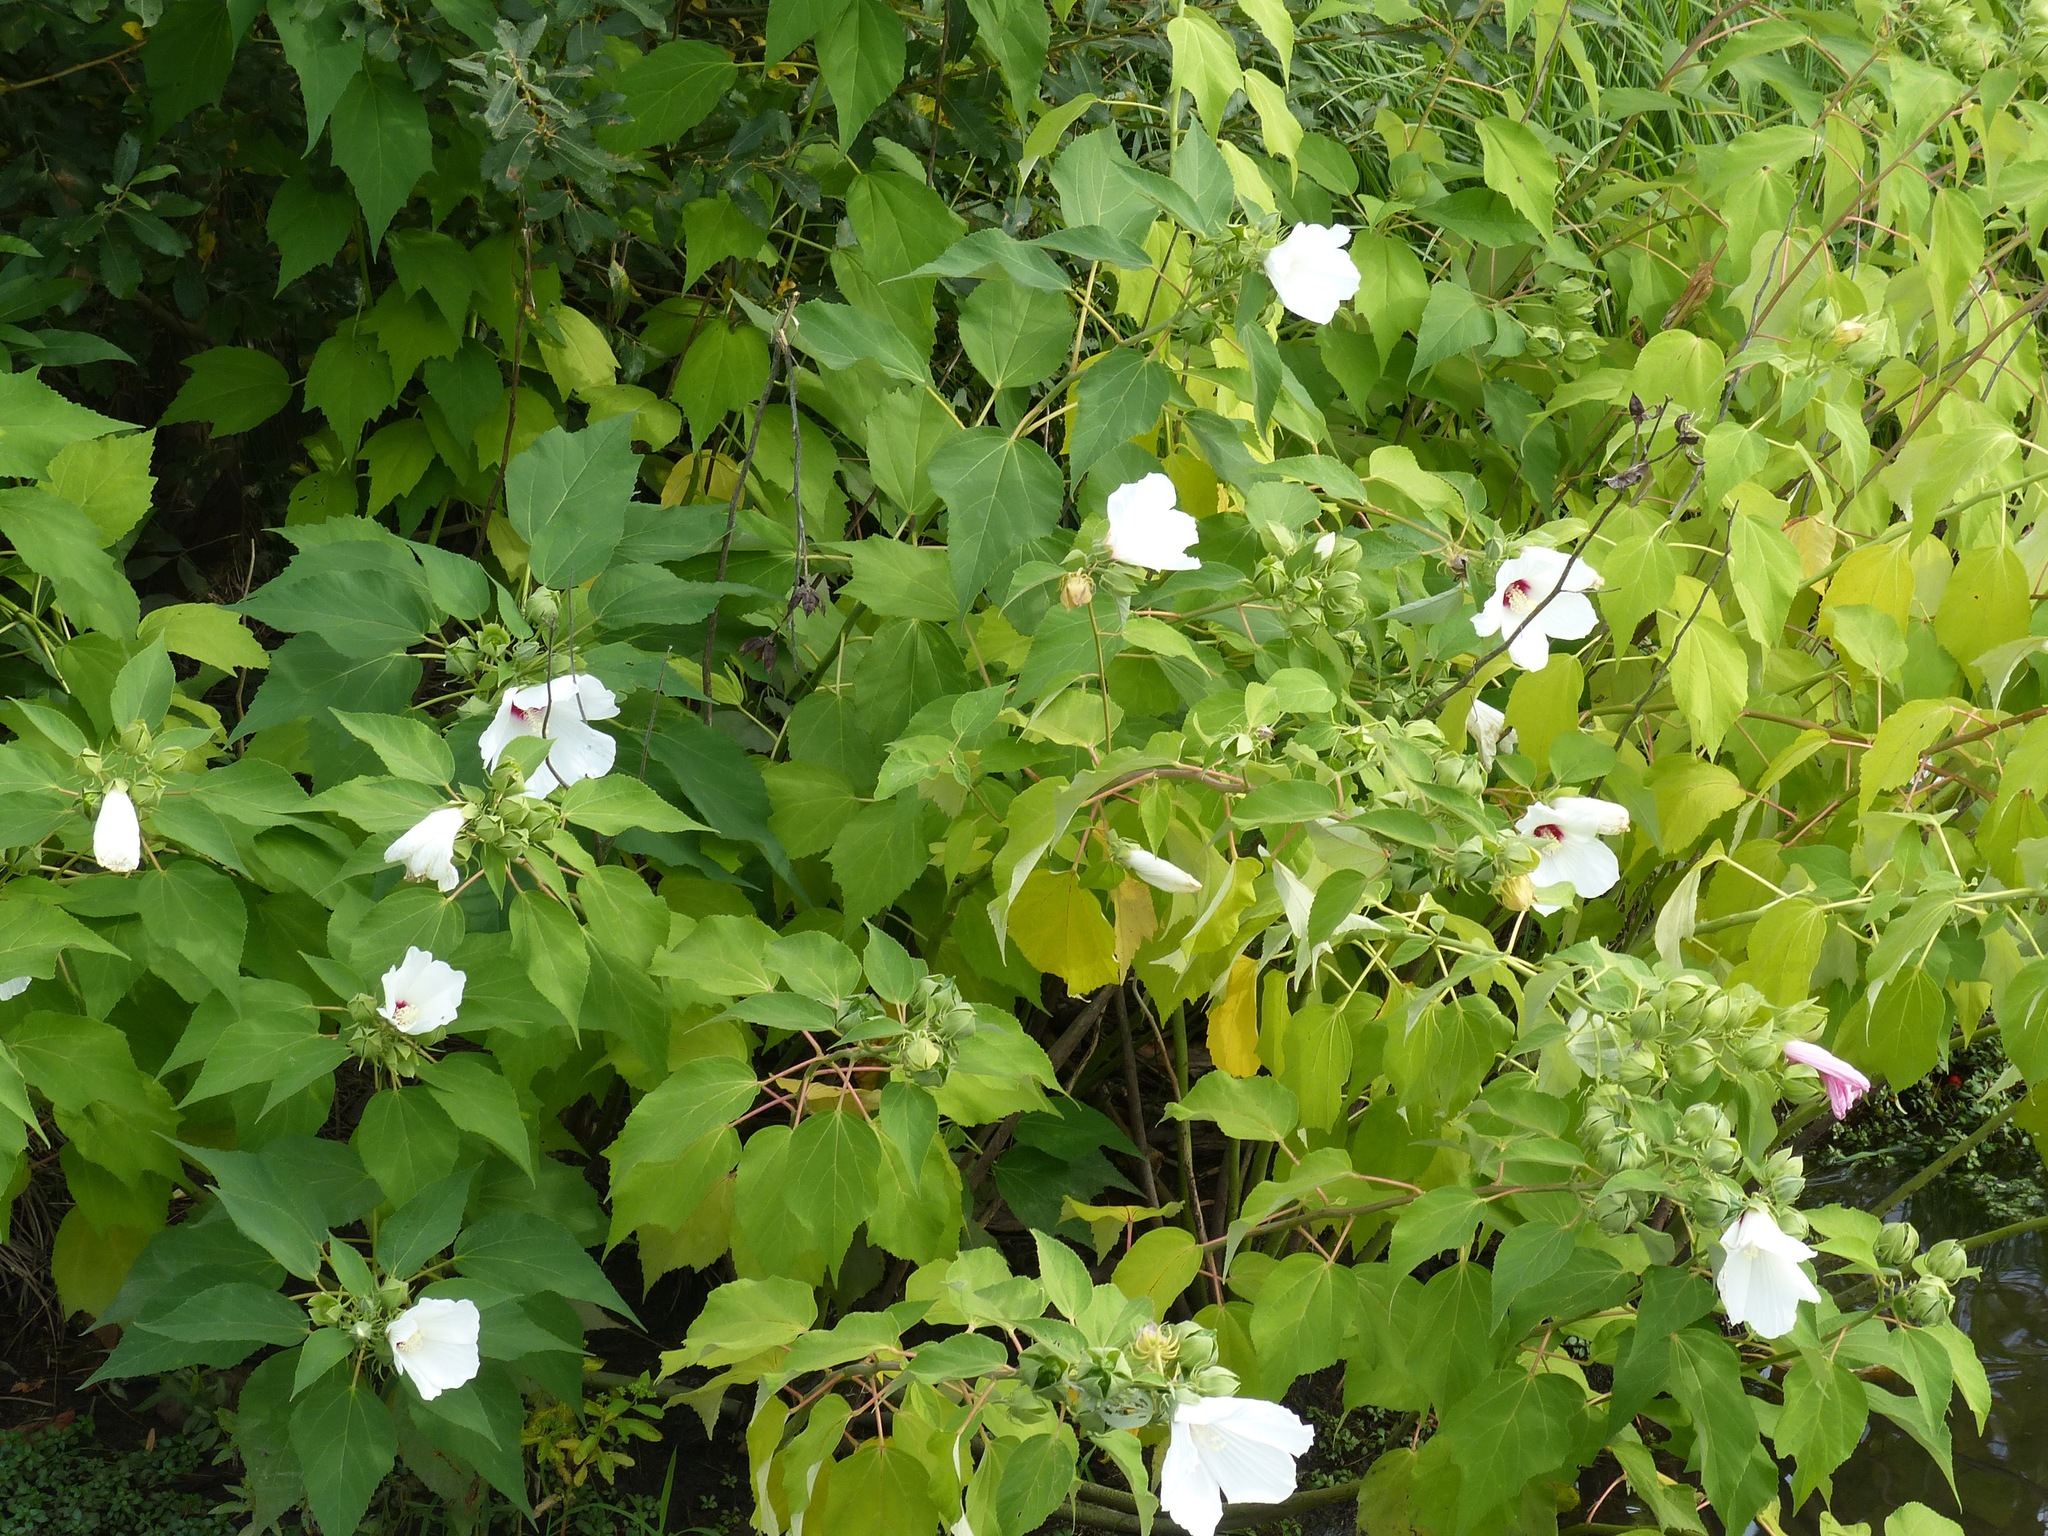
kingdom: Plantae
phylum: Tracheophyta
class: Magnoliopsida
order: Malvales
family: Malvaceae
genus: Hibiscus
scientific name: Hibiscus moscheutos
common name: Common rose-mallow
